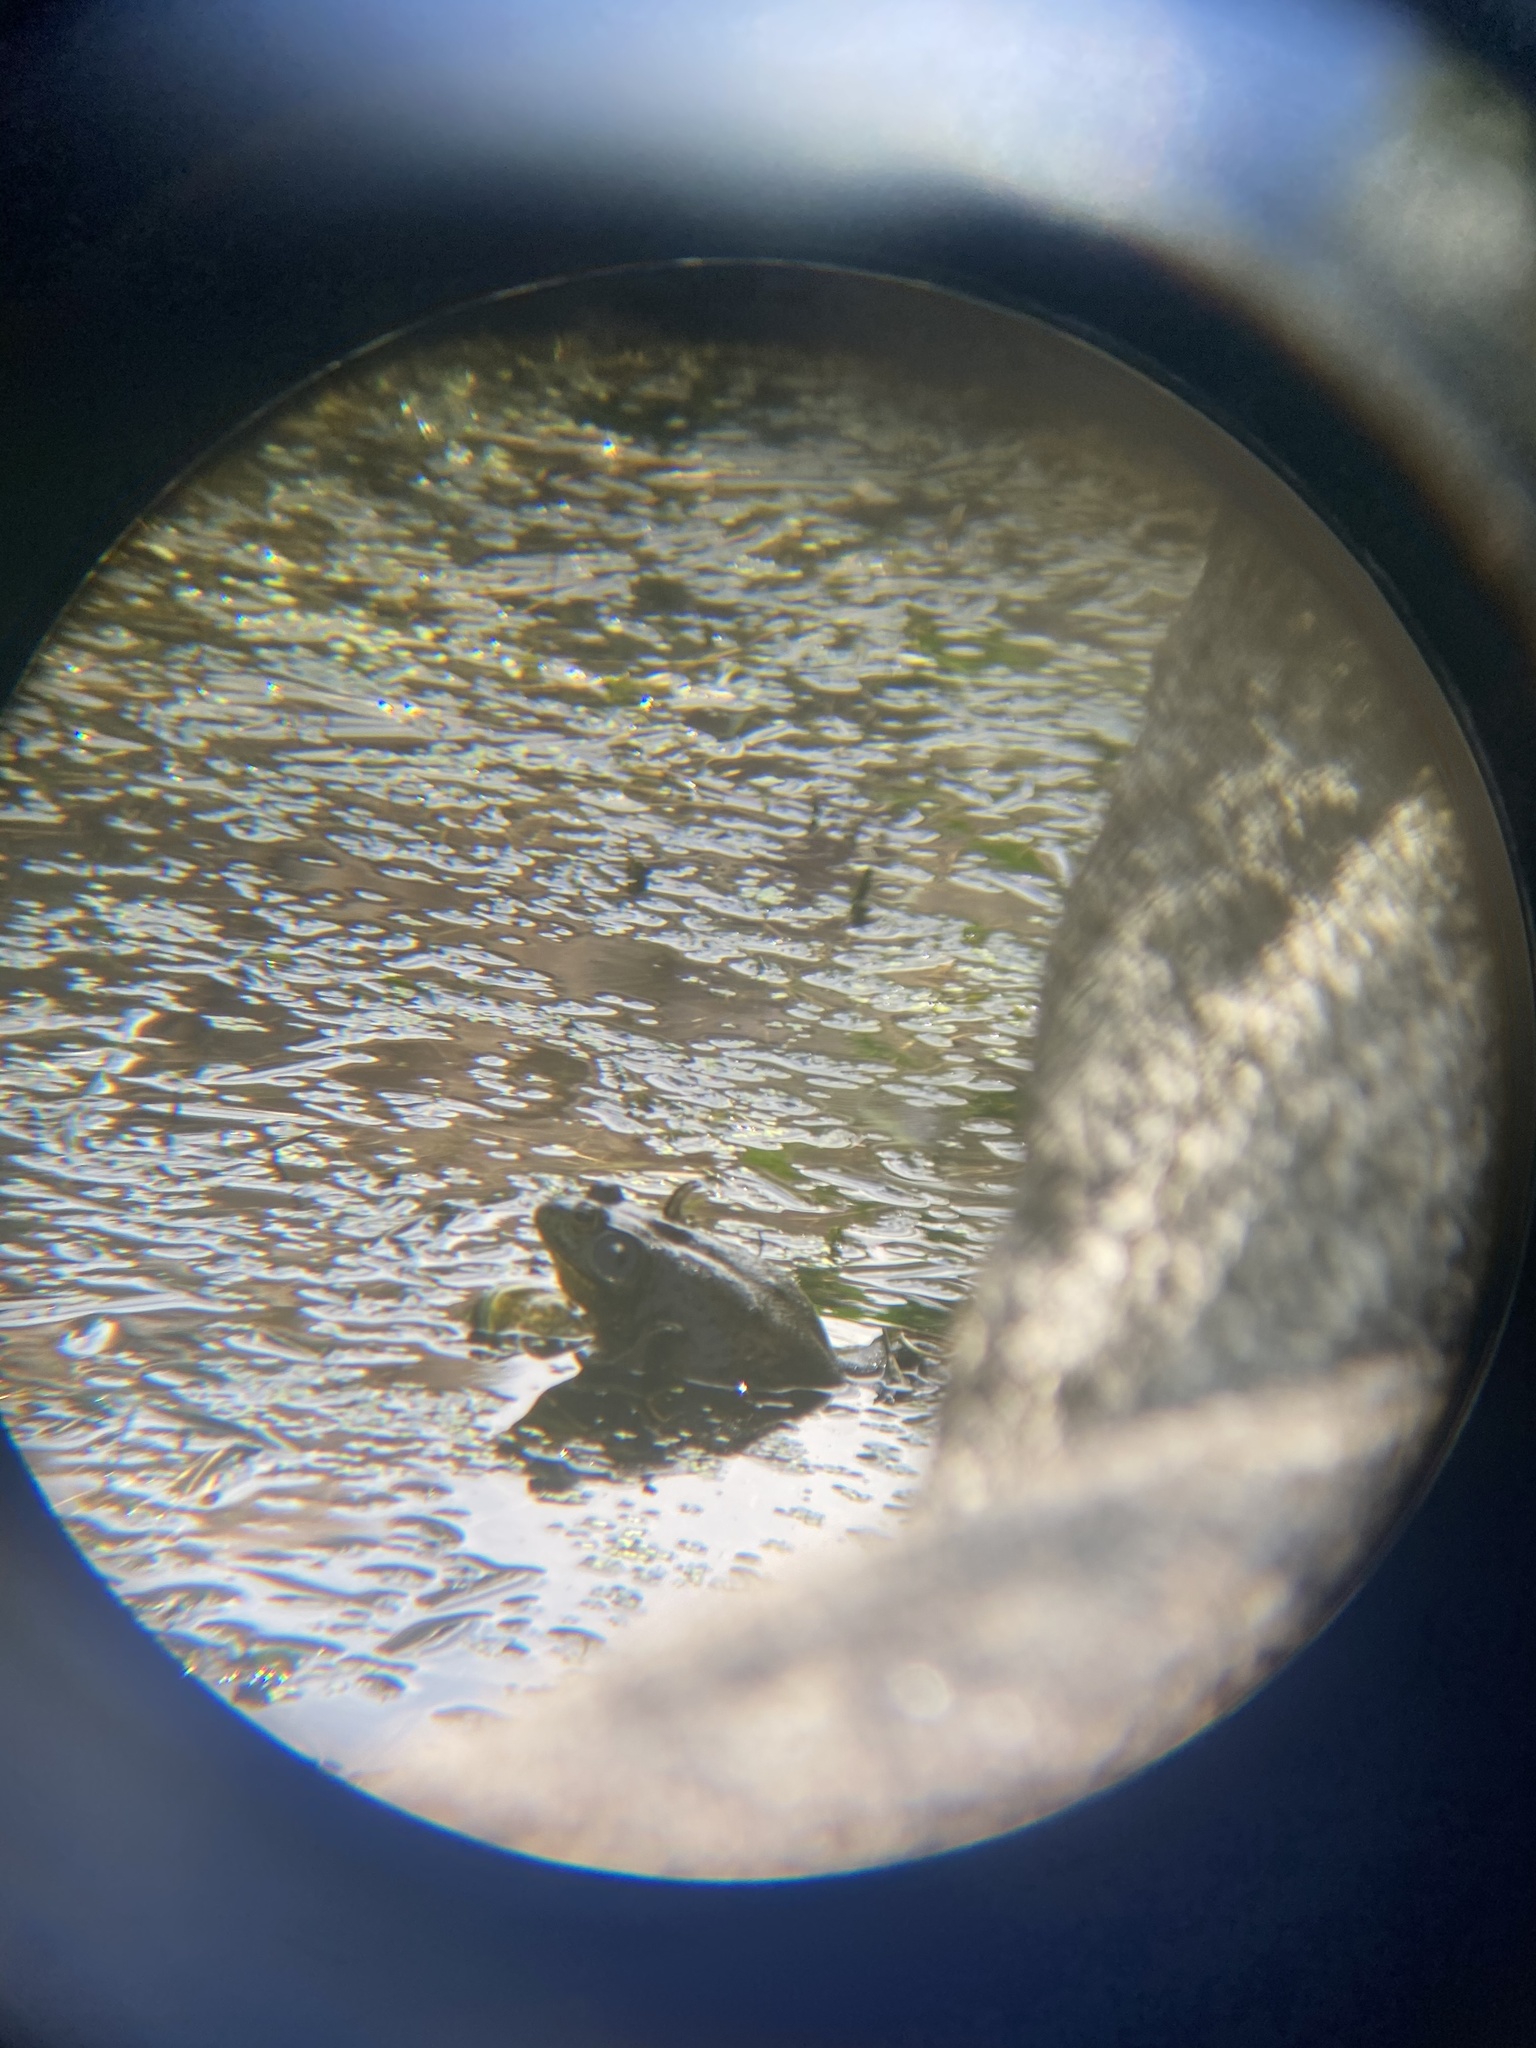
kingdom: Animalia
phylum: Chordata
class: Amphibia
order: Anura
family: Ranidae
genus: Lithobates
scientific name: Lithobates catesbeianus
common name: American bullfrog
